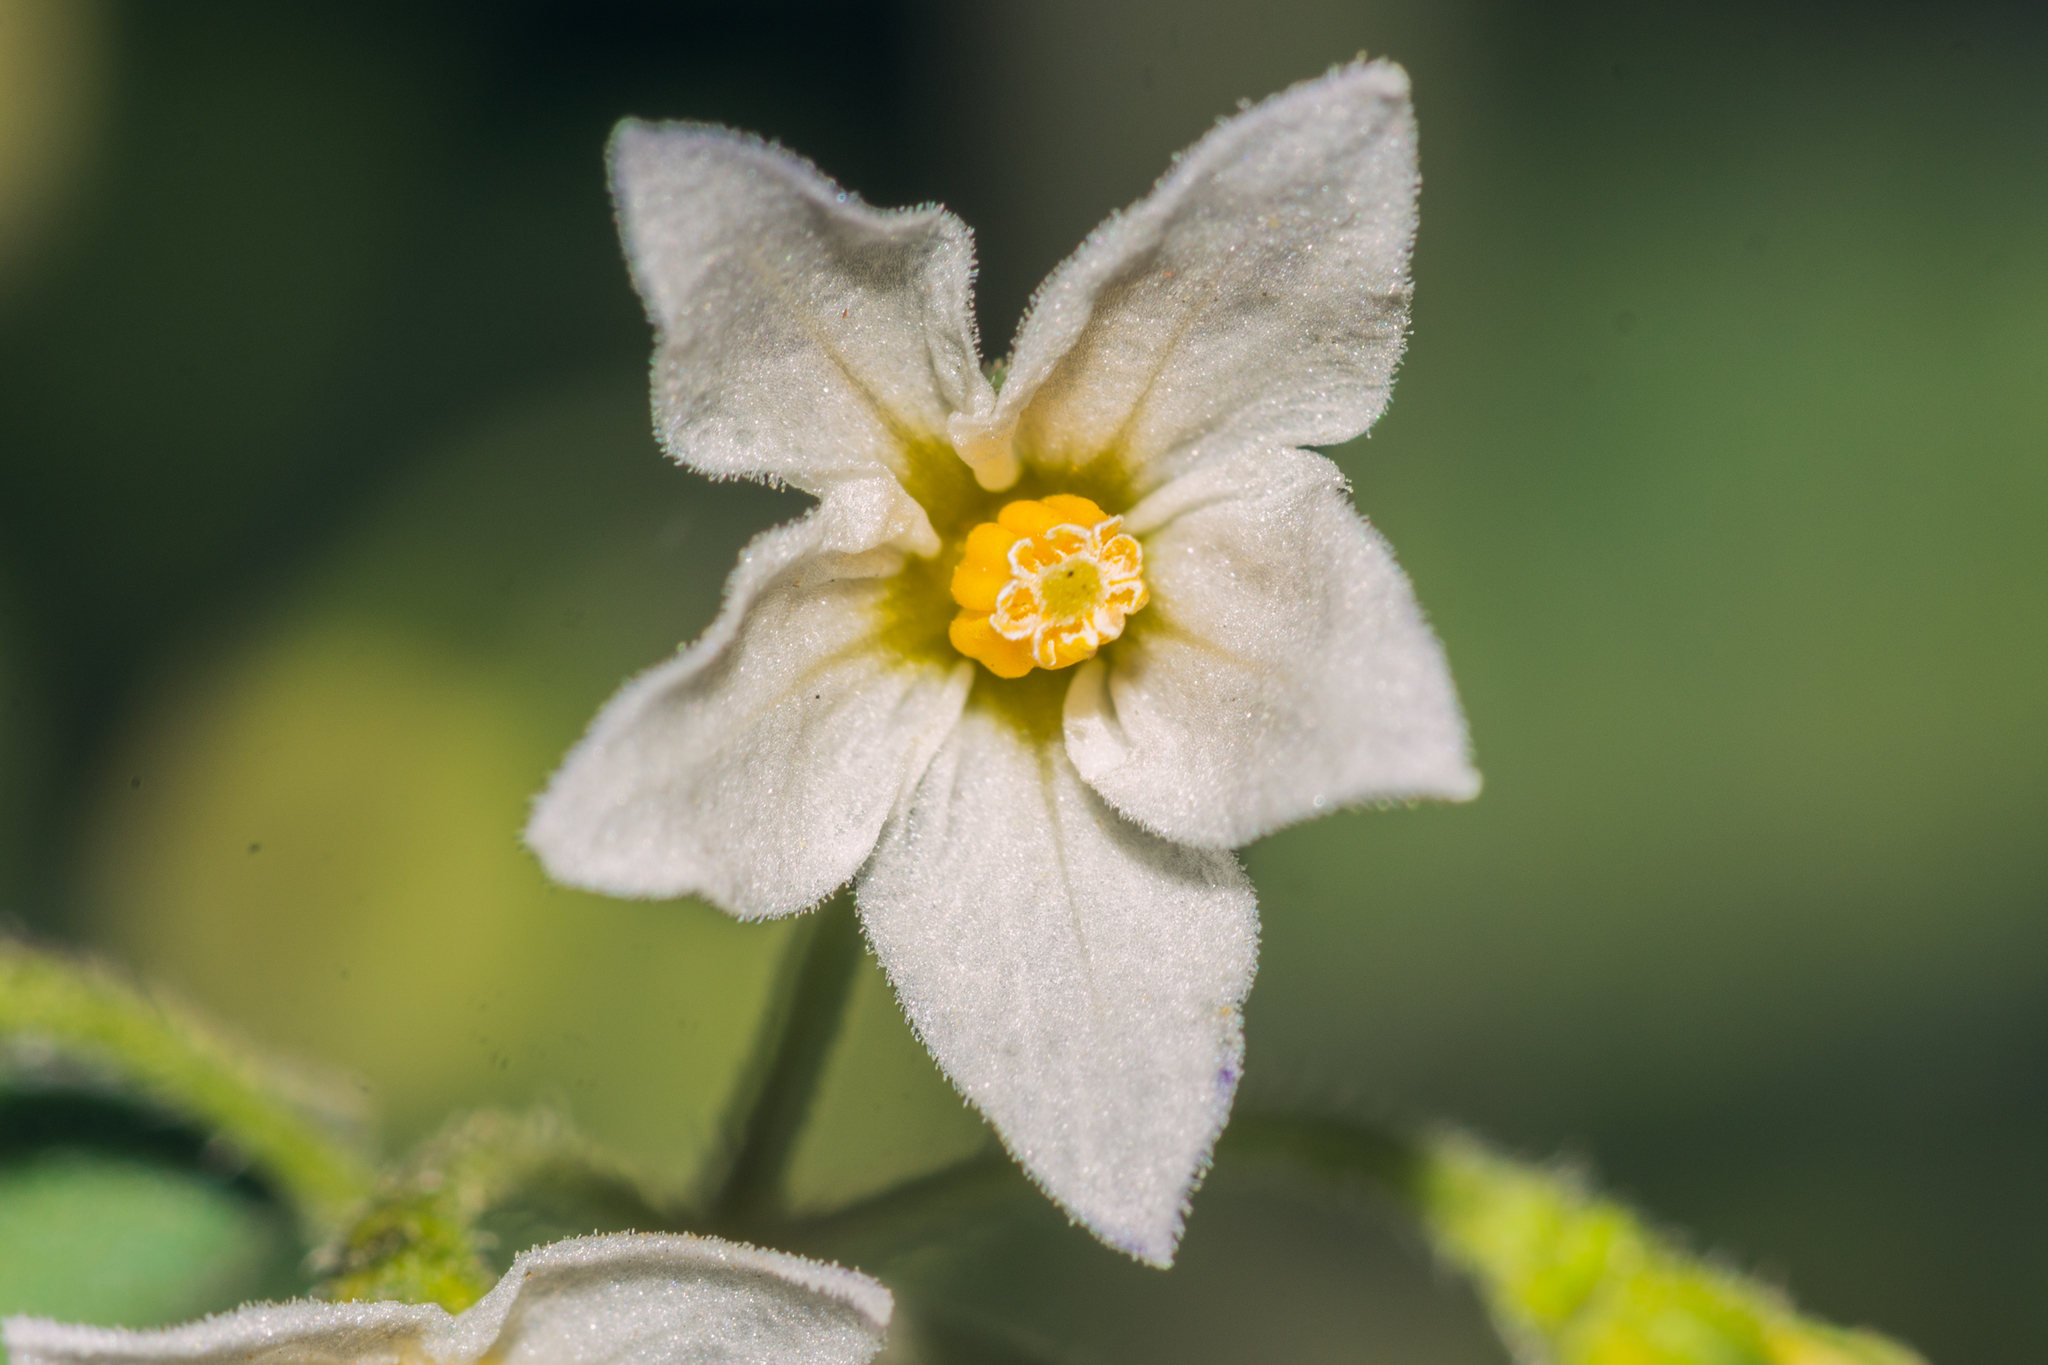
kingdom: Plantae
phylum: Tracheophyta
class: Magnoliopsida
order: Solanales
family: Solanaceae
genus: Solanum
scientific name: Solanum nigrum
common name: Black nightshade
